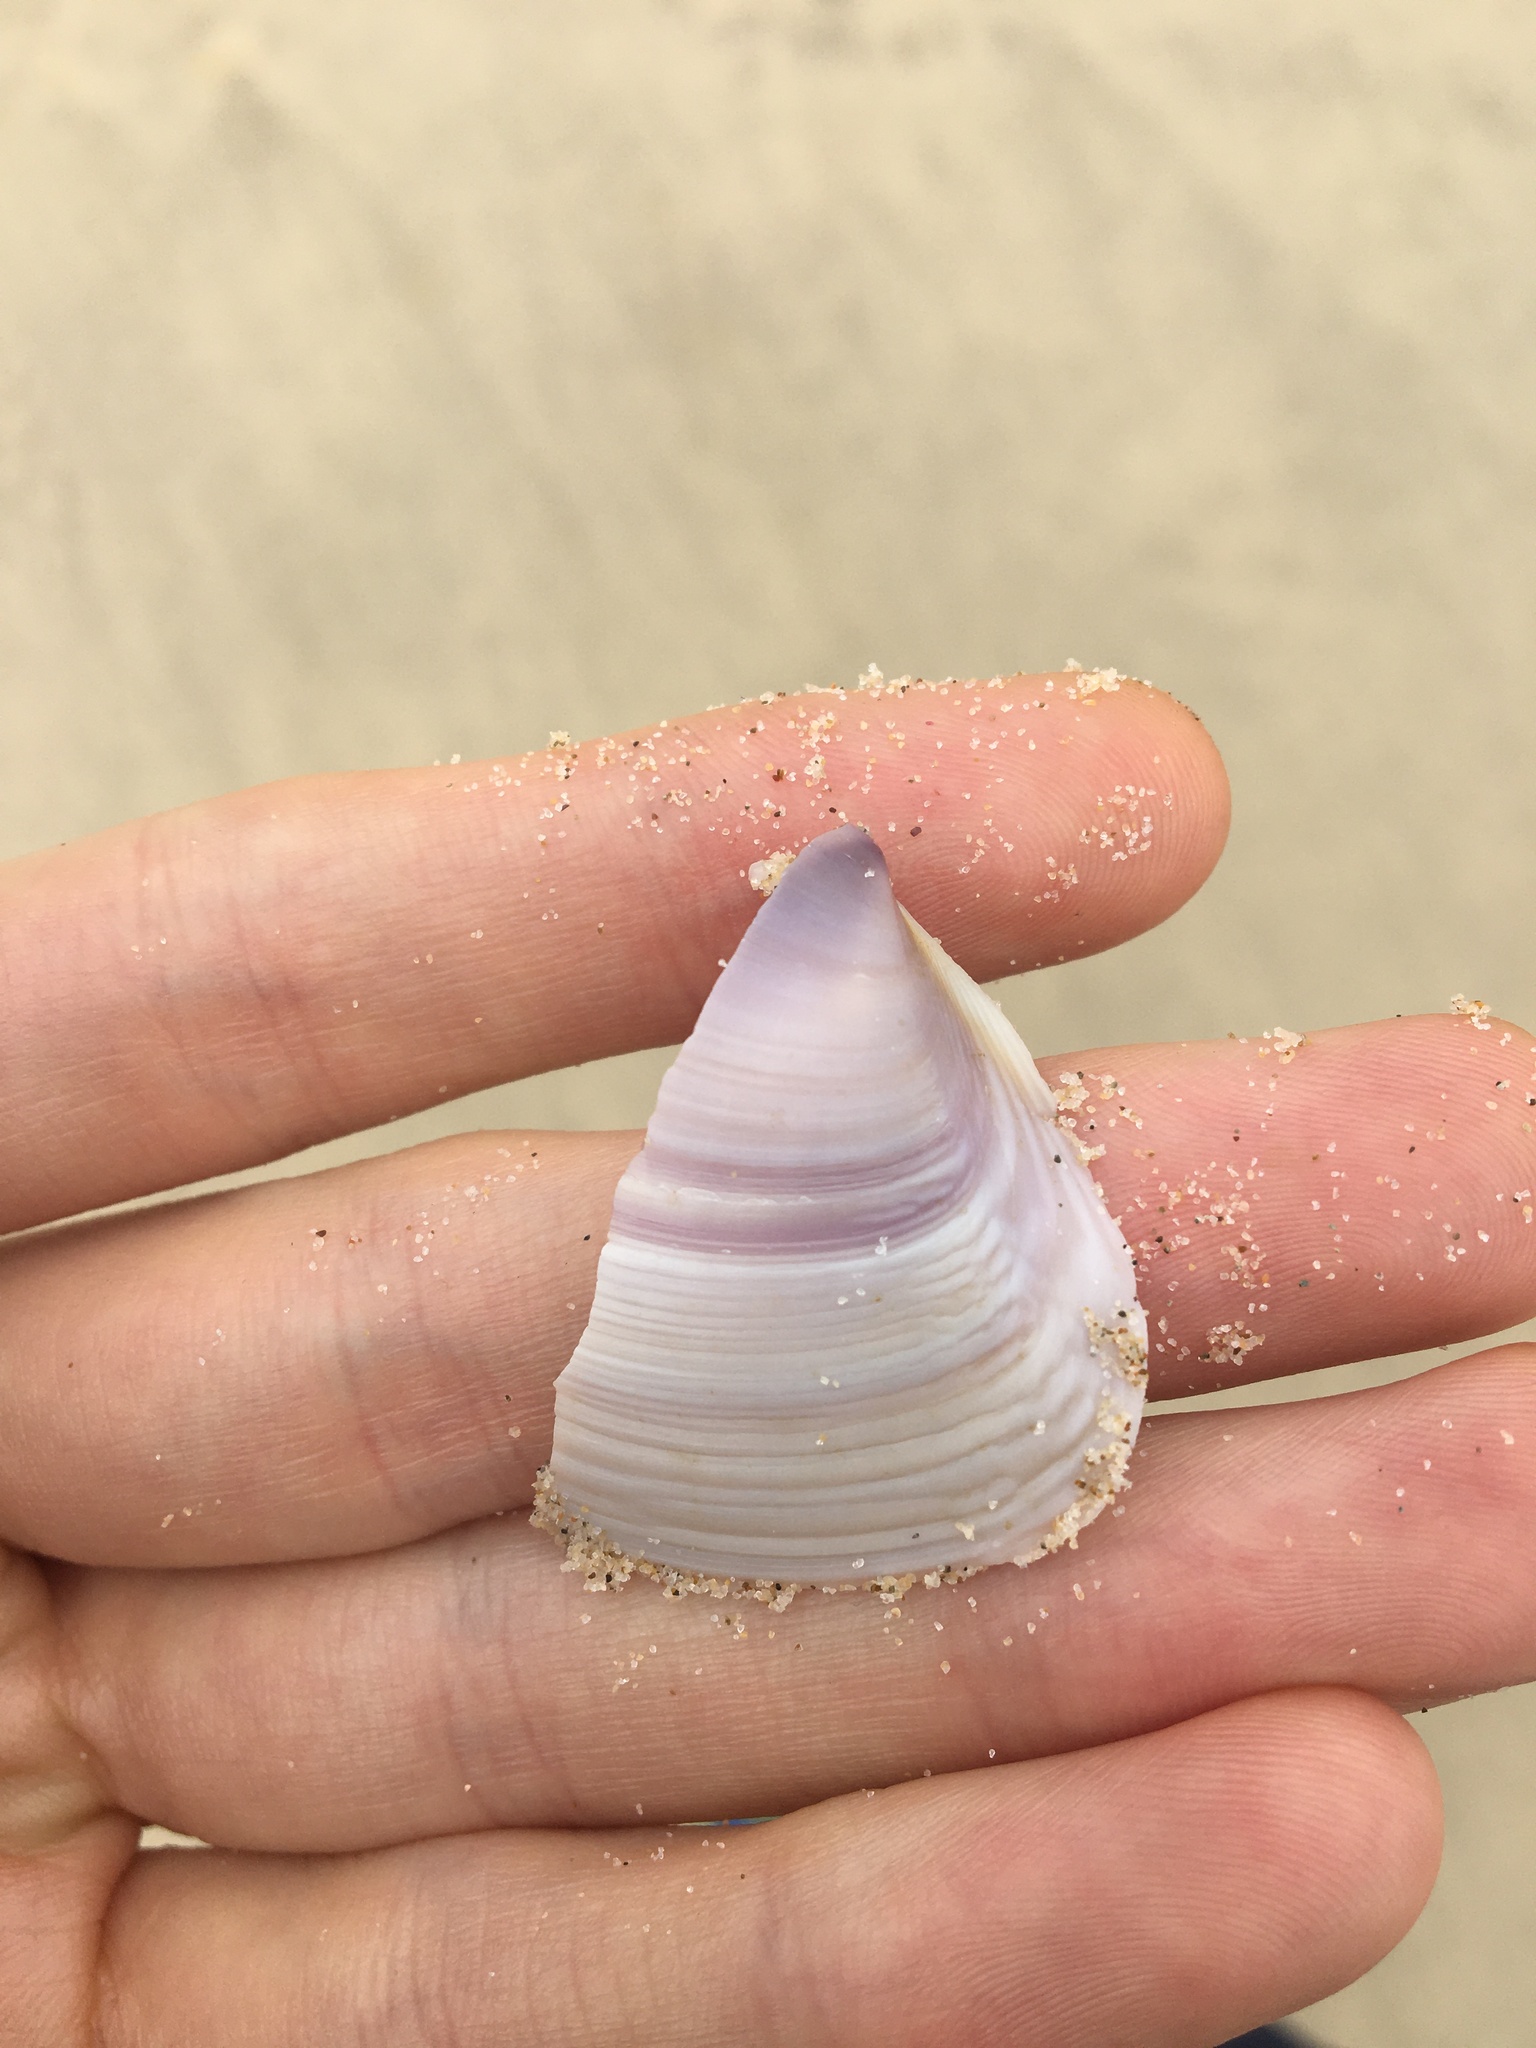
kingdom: Animalia
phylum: Mollusca
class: Bivalvia
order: Venerida
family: Mactridae
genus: Austromactra
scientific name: Austromactra contraria
